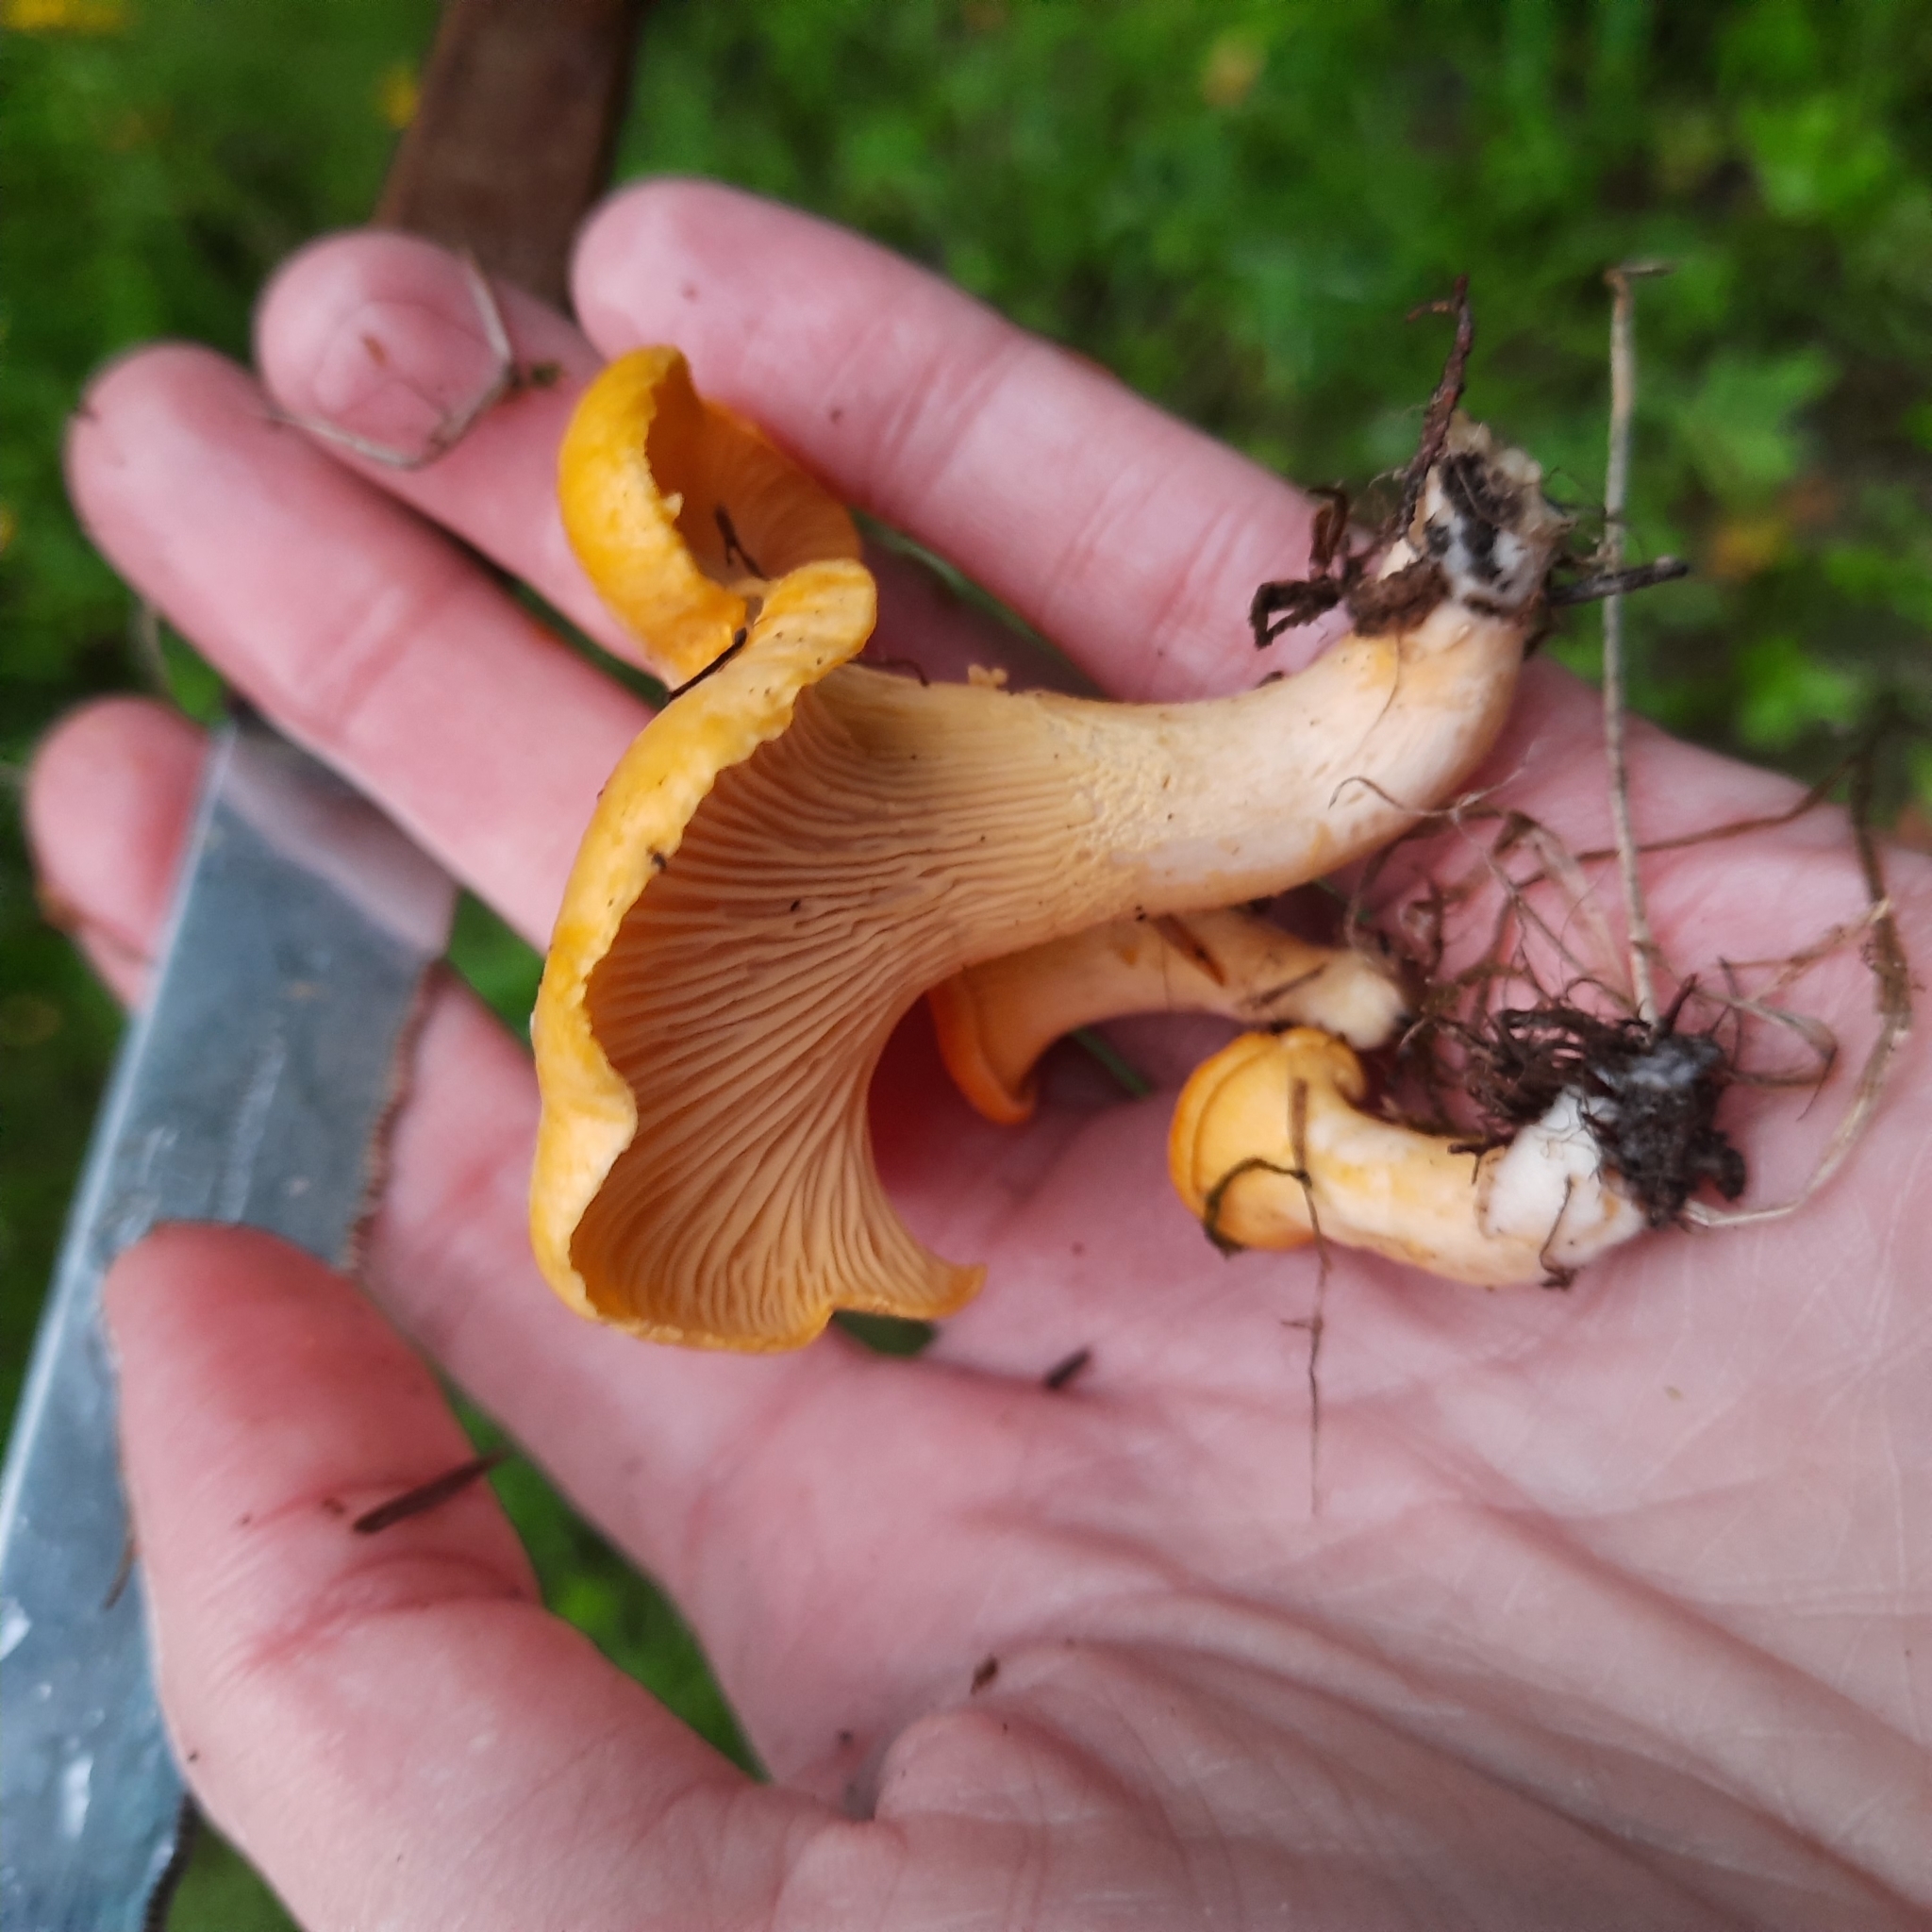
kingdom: Fungi
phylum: Basidiomycota
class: Agaricomycetes
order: Cantharellales
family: Hydnaceae
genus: Cantharellus
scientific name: Cantharellus cibarius
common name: Chanterelle
